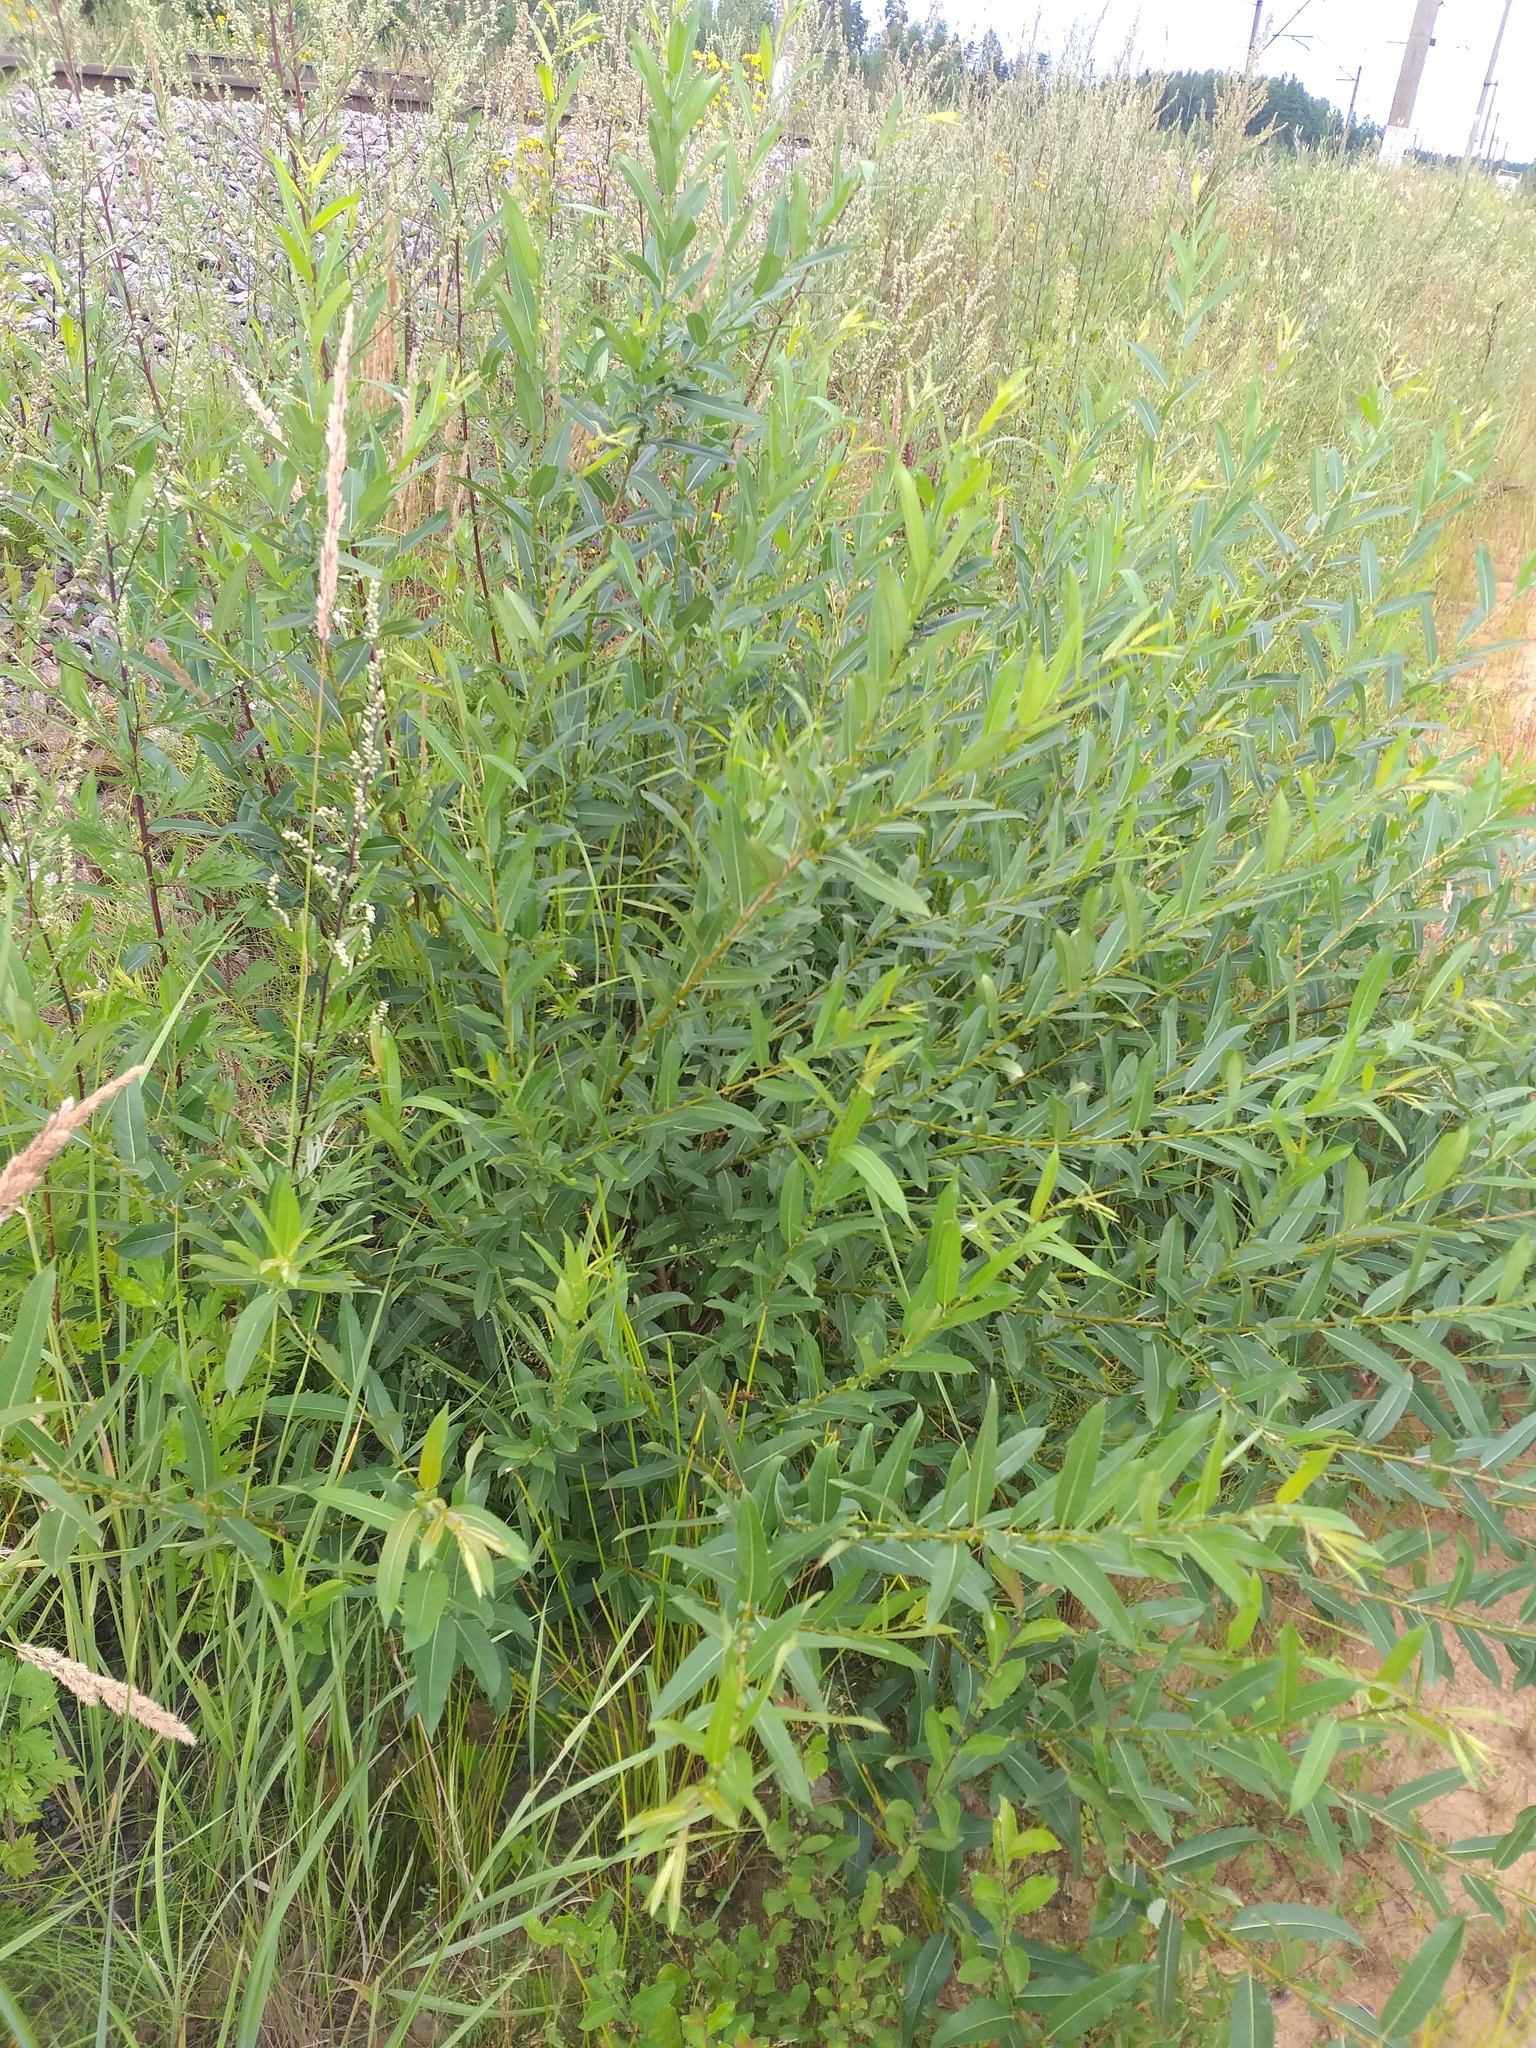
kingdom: Plantae
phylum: Tracheophyta
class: Magnoliopsida
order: Malpighiales
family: Salicaceae
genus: Salix
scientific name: Salix triandra
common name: Almond willow
